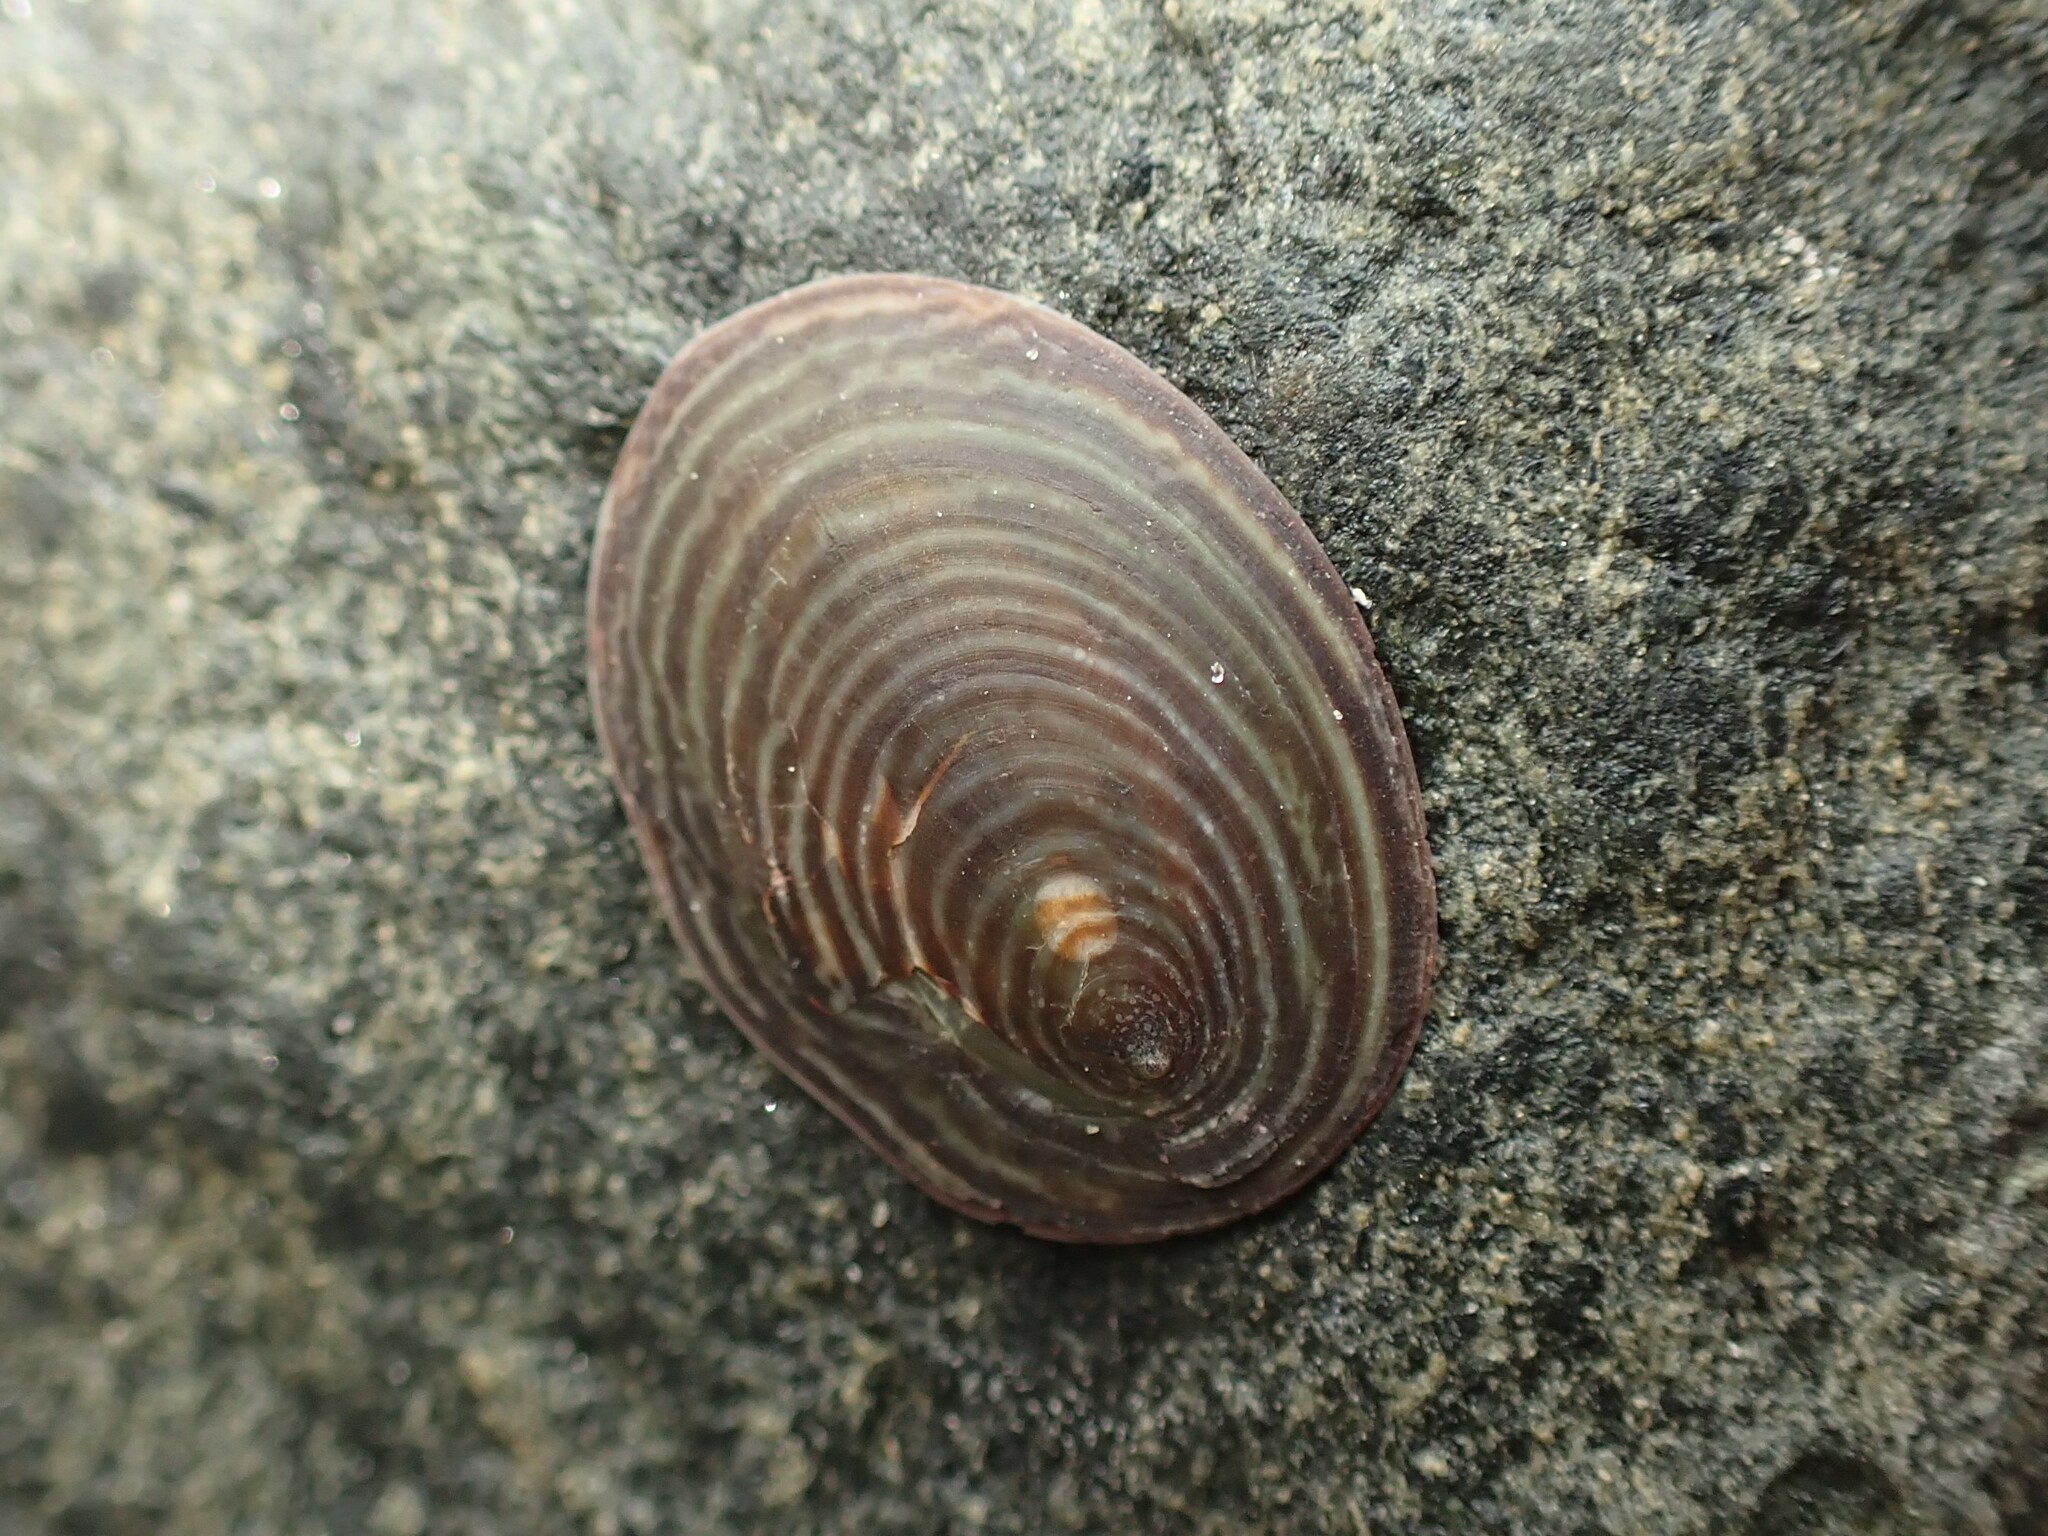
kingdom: Animalia
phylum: Mollusca
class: Gastropoda
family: Lottiidae
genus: Atalacmea
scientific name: Atalacmea fragilis
